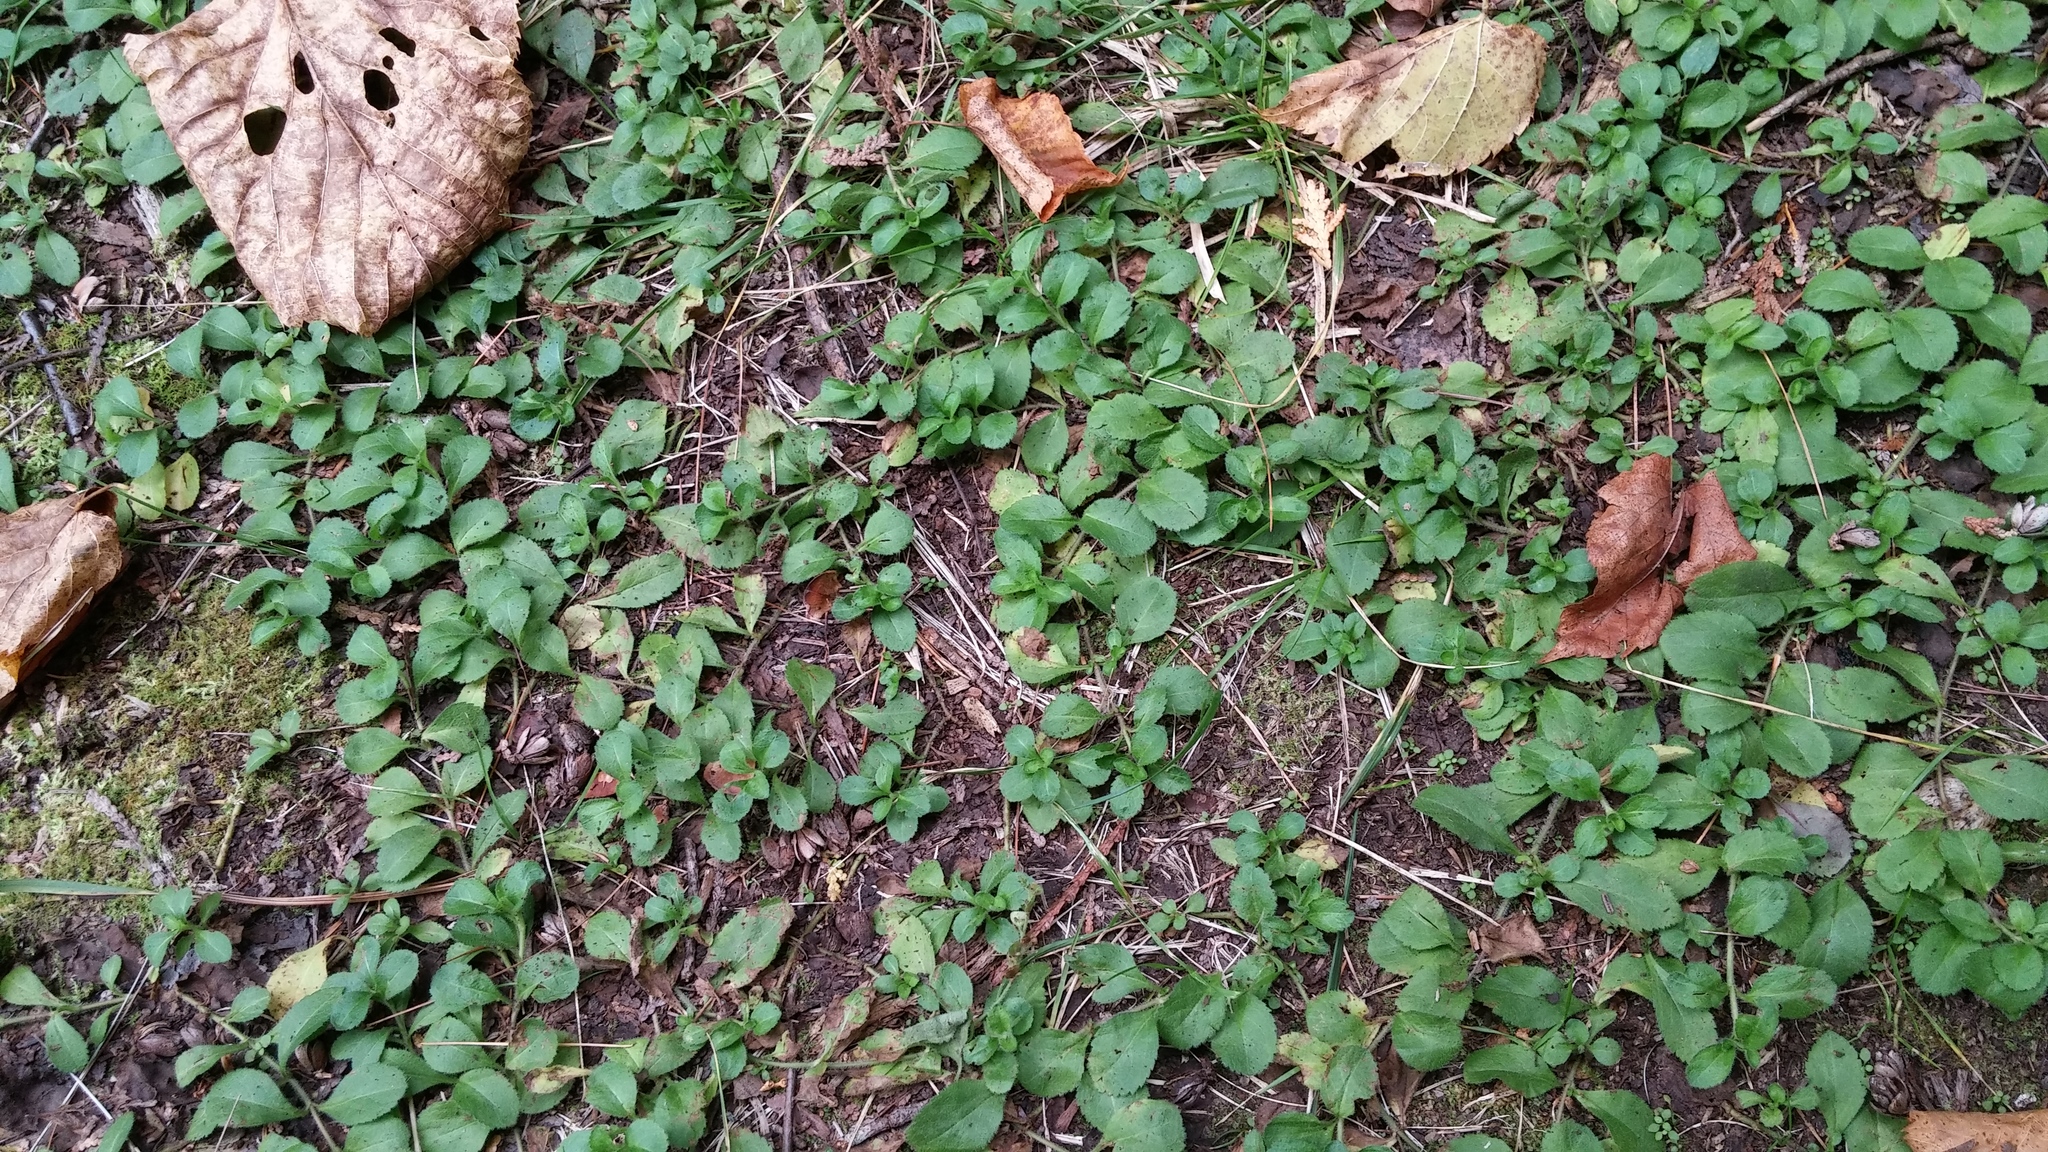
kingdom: Plantae
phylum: Tracheophyta
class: Magnoliopsida
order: Lamiales
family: Plantaginaceae
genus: Veronica
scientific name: Veronica officinalis
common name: Common speedwell
